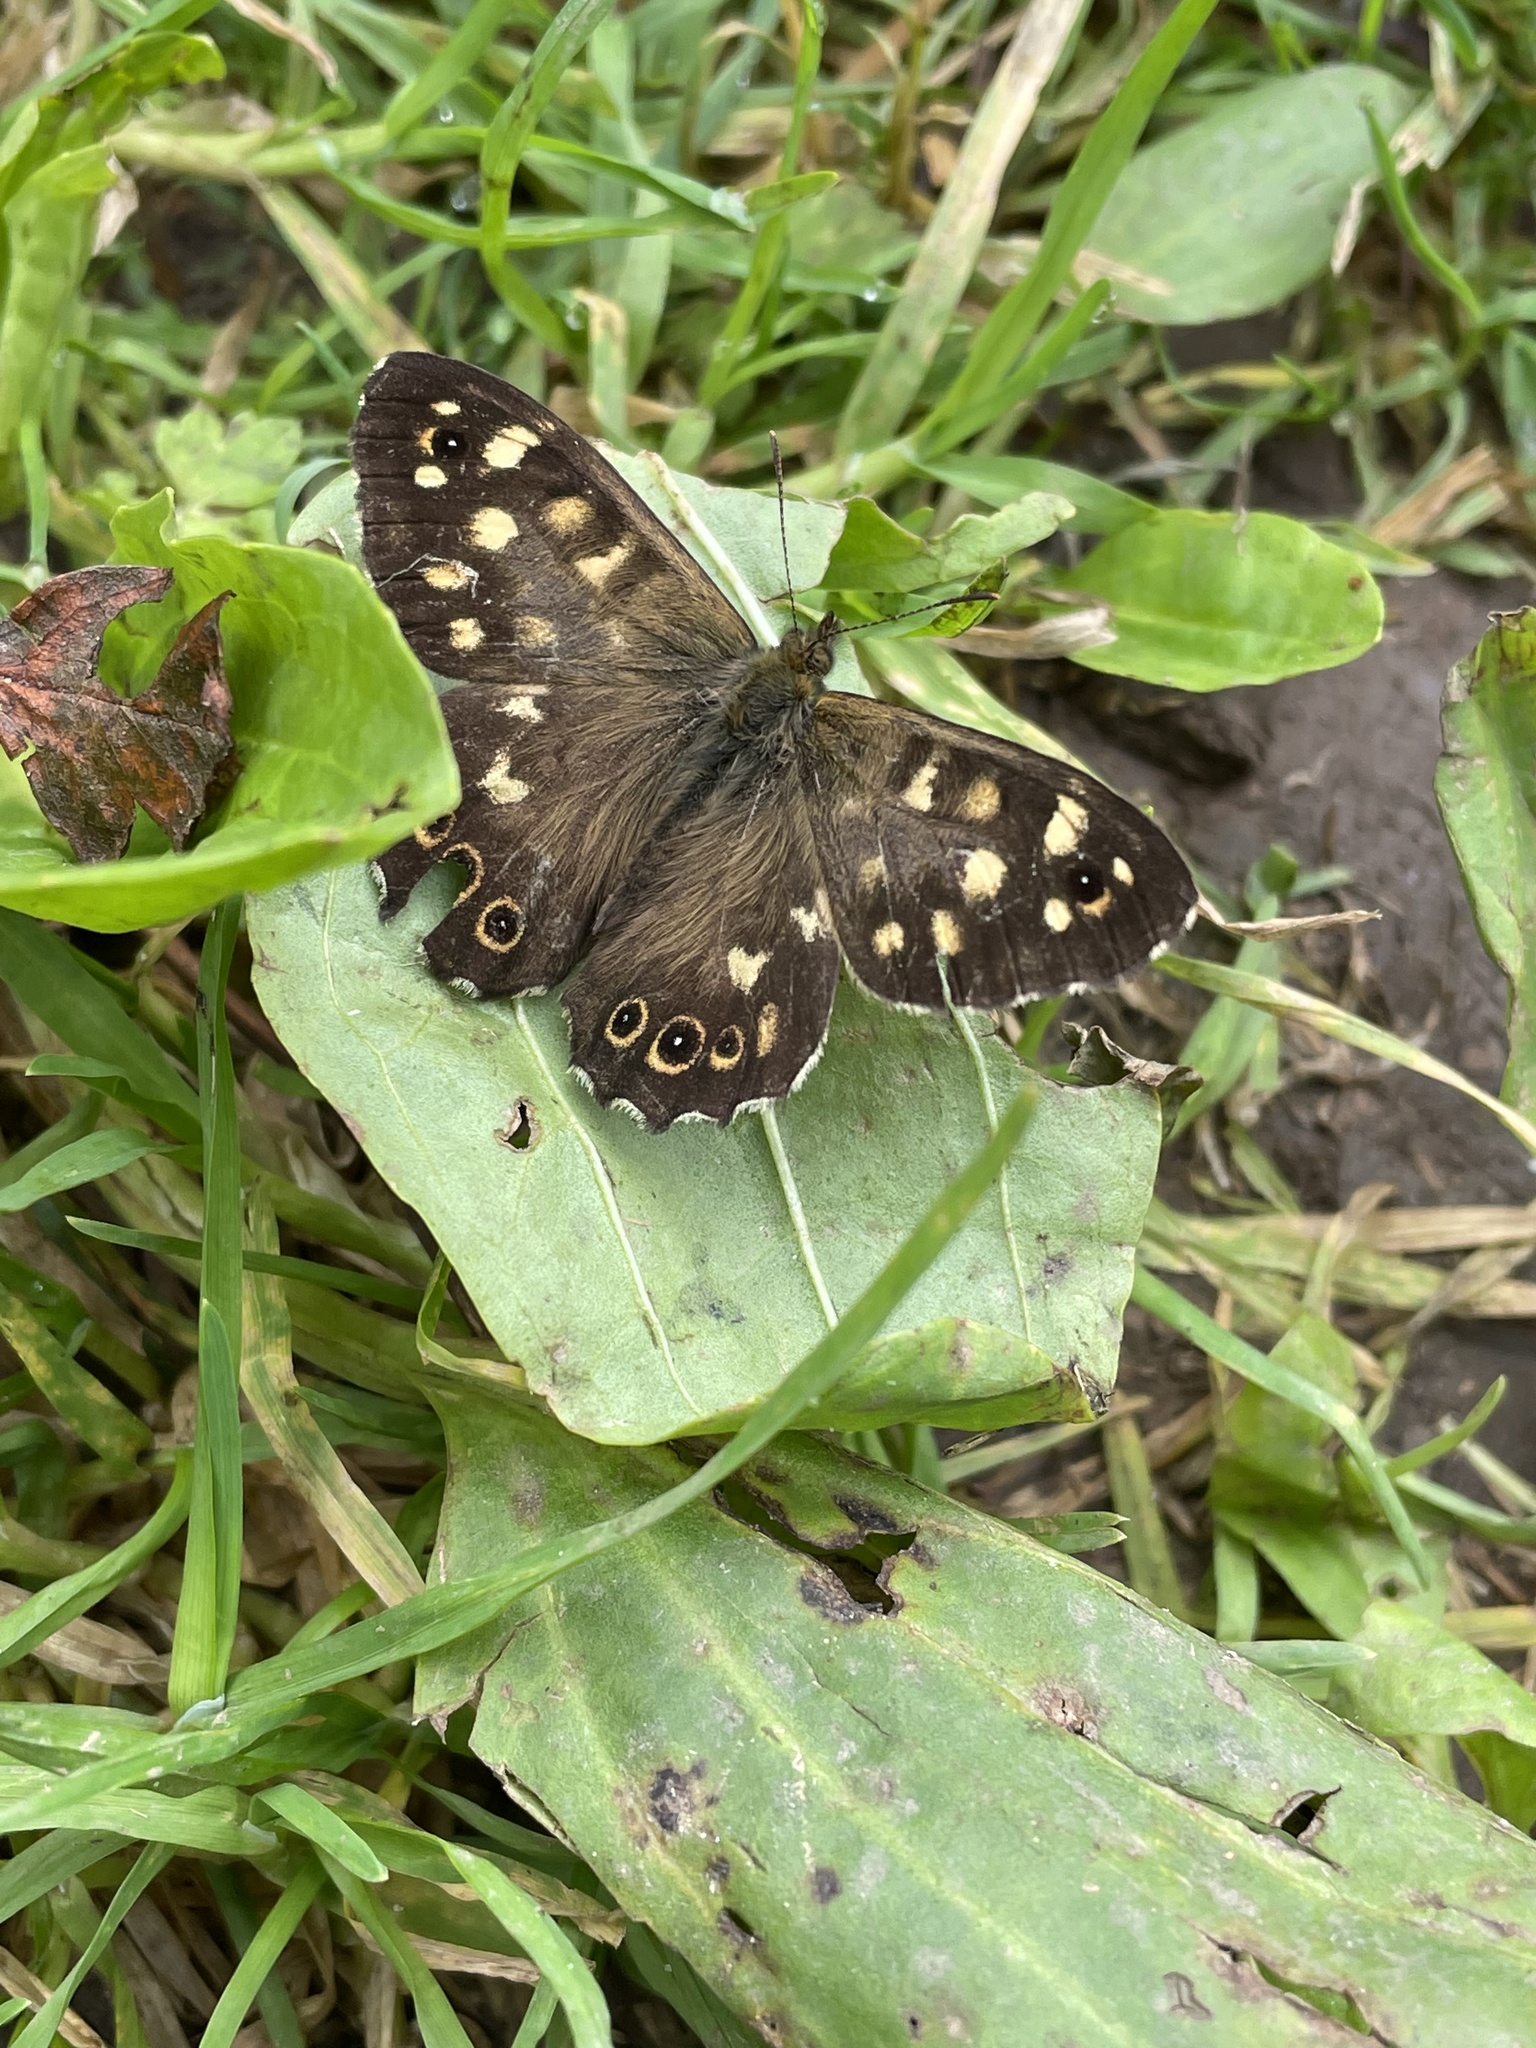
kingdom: Animalia
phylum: Arthropoda
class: Insecta
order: Lepidoptera
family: Nymphalidae
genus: Pararge
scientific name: Pararge aegeria
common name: Speckled wood
